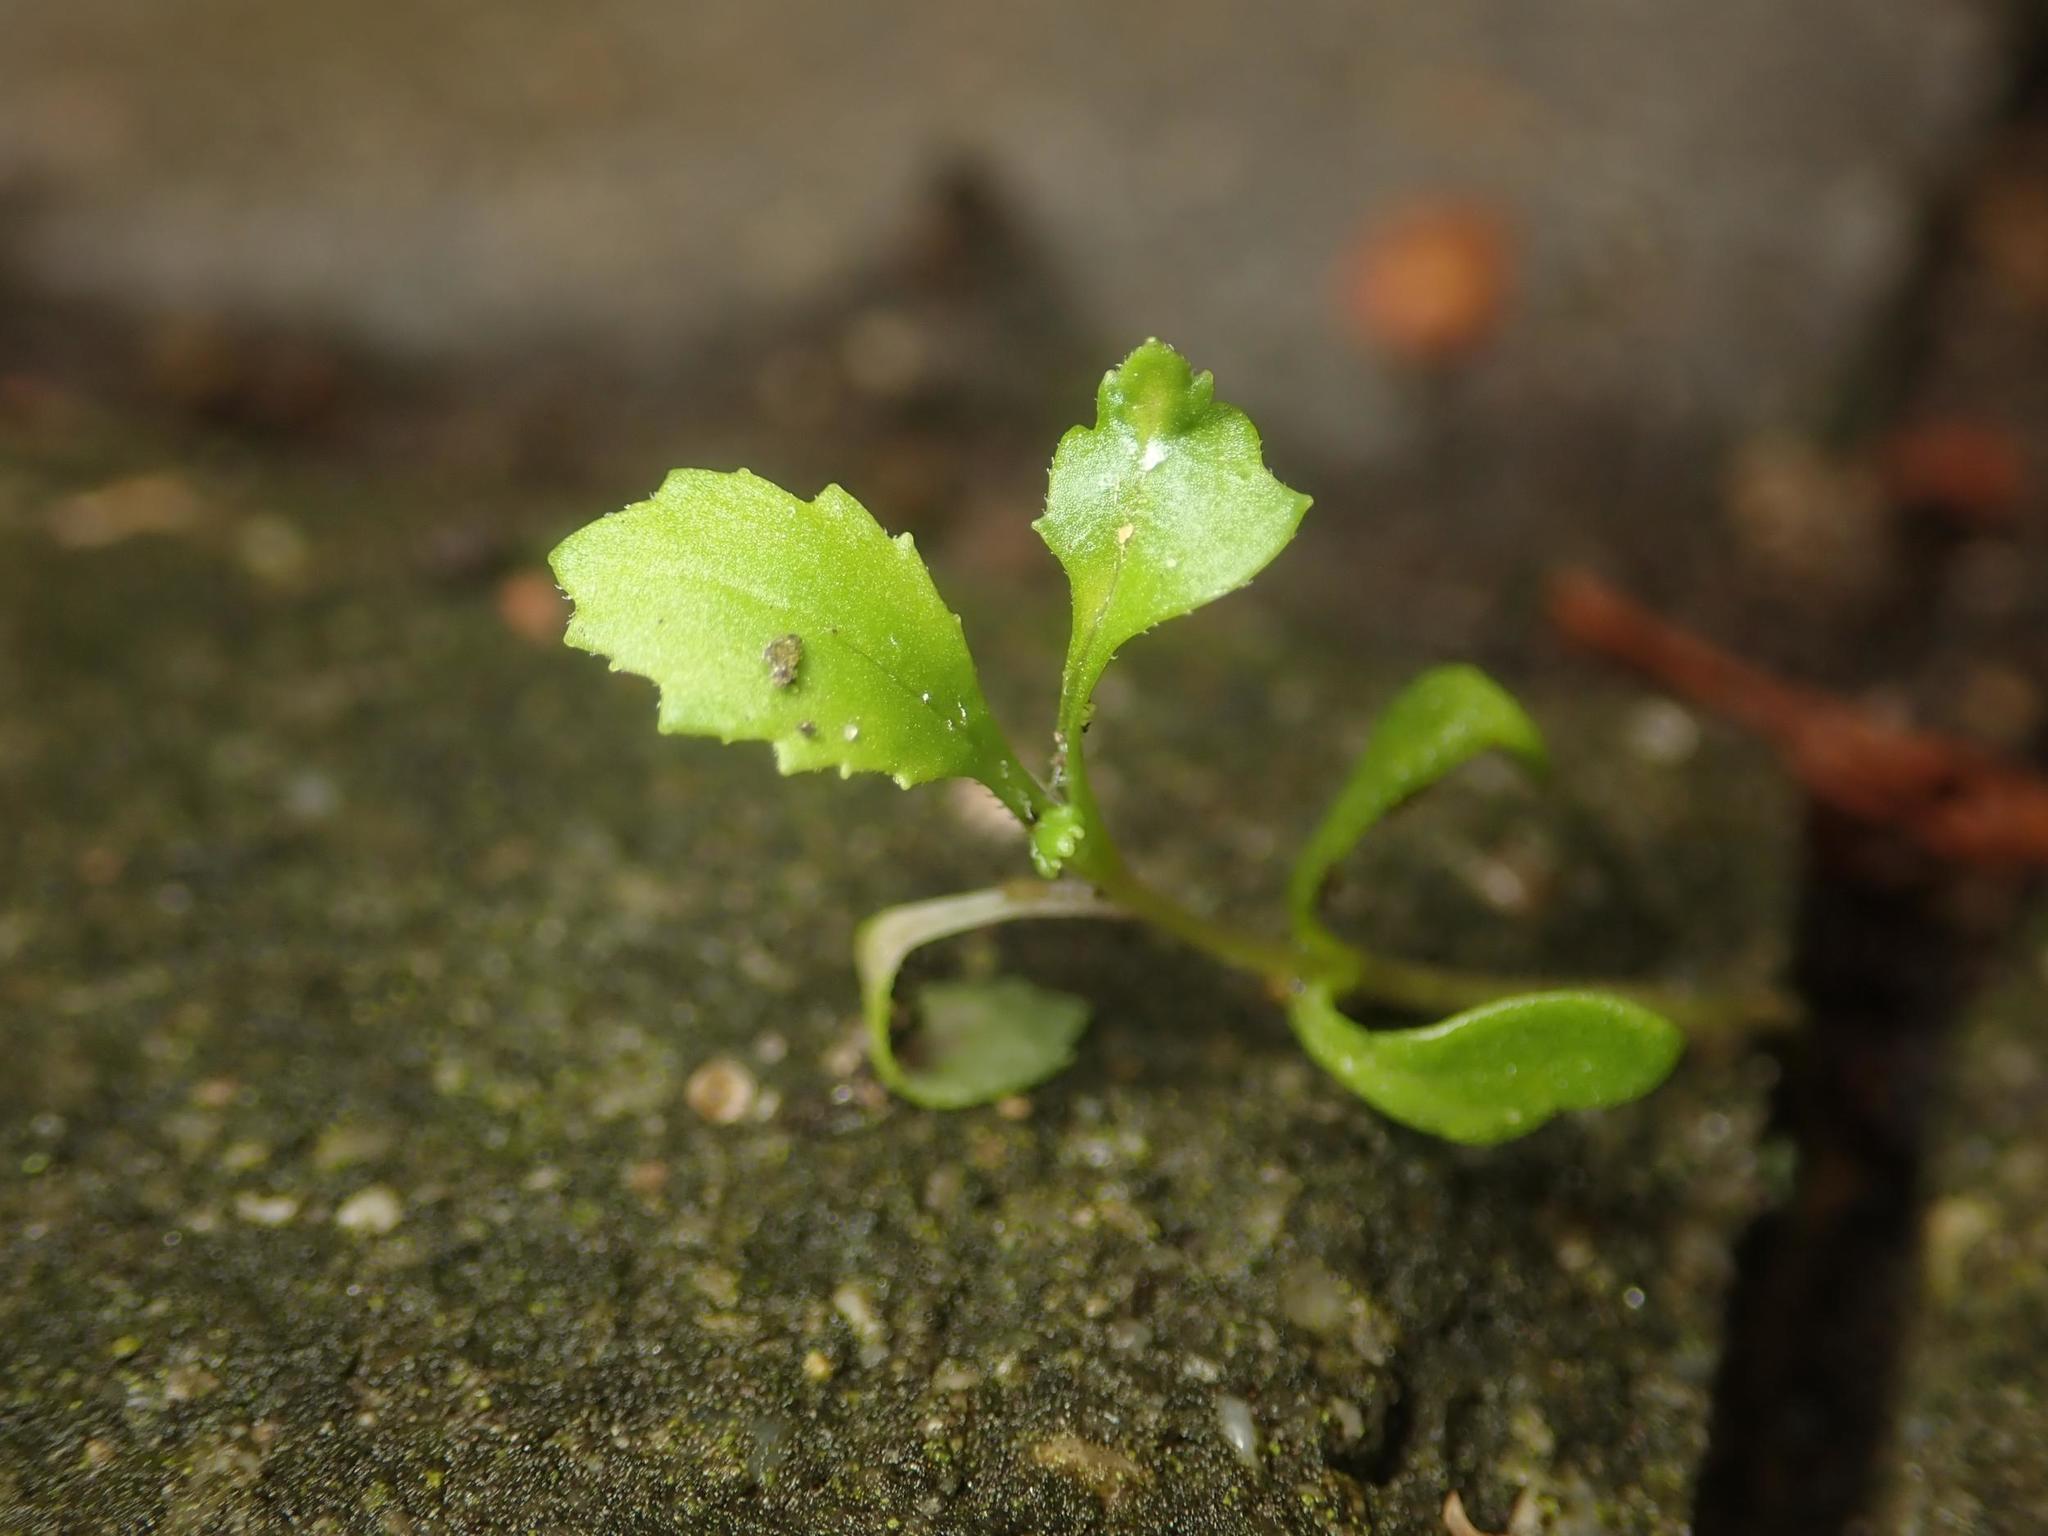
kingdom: Plantae
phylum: Tracheophyta
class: Magnoliopsida
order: Asterales
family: Asteraceae
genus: Senecio
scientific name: Senecio vulgaris
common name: Old-man-in-the-spring
